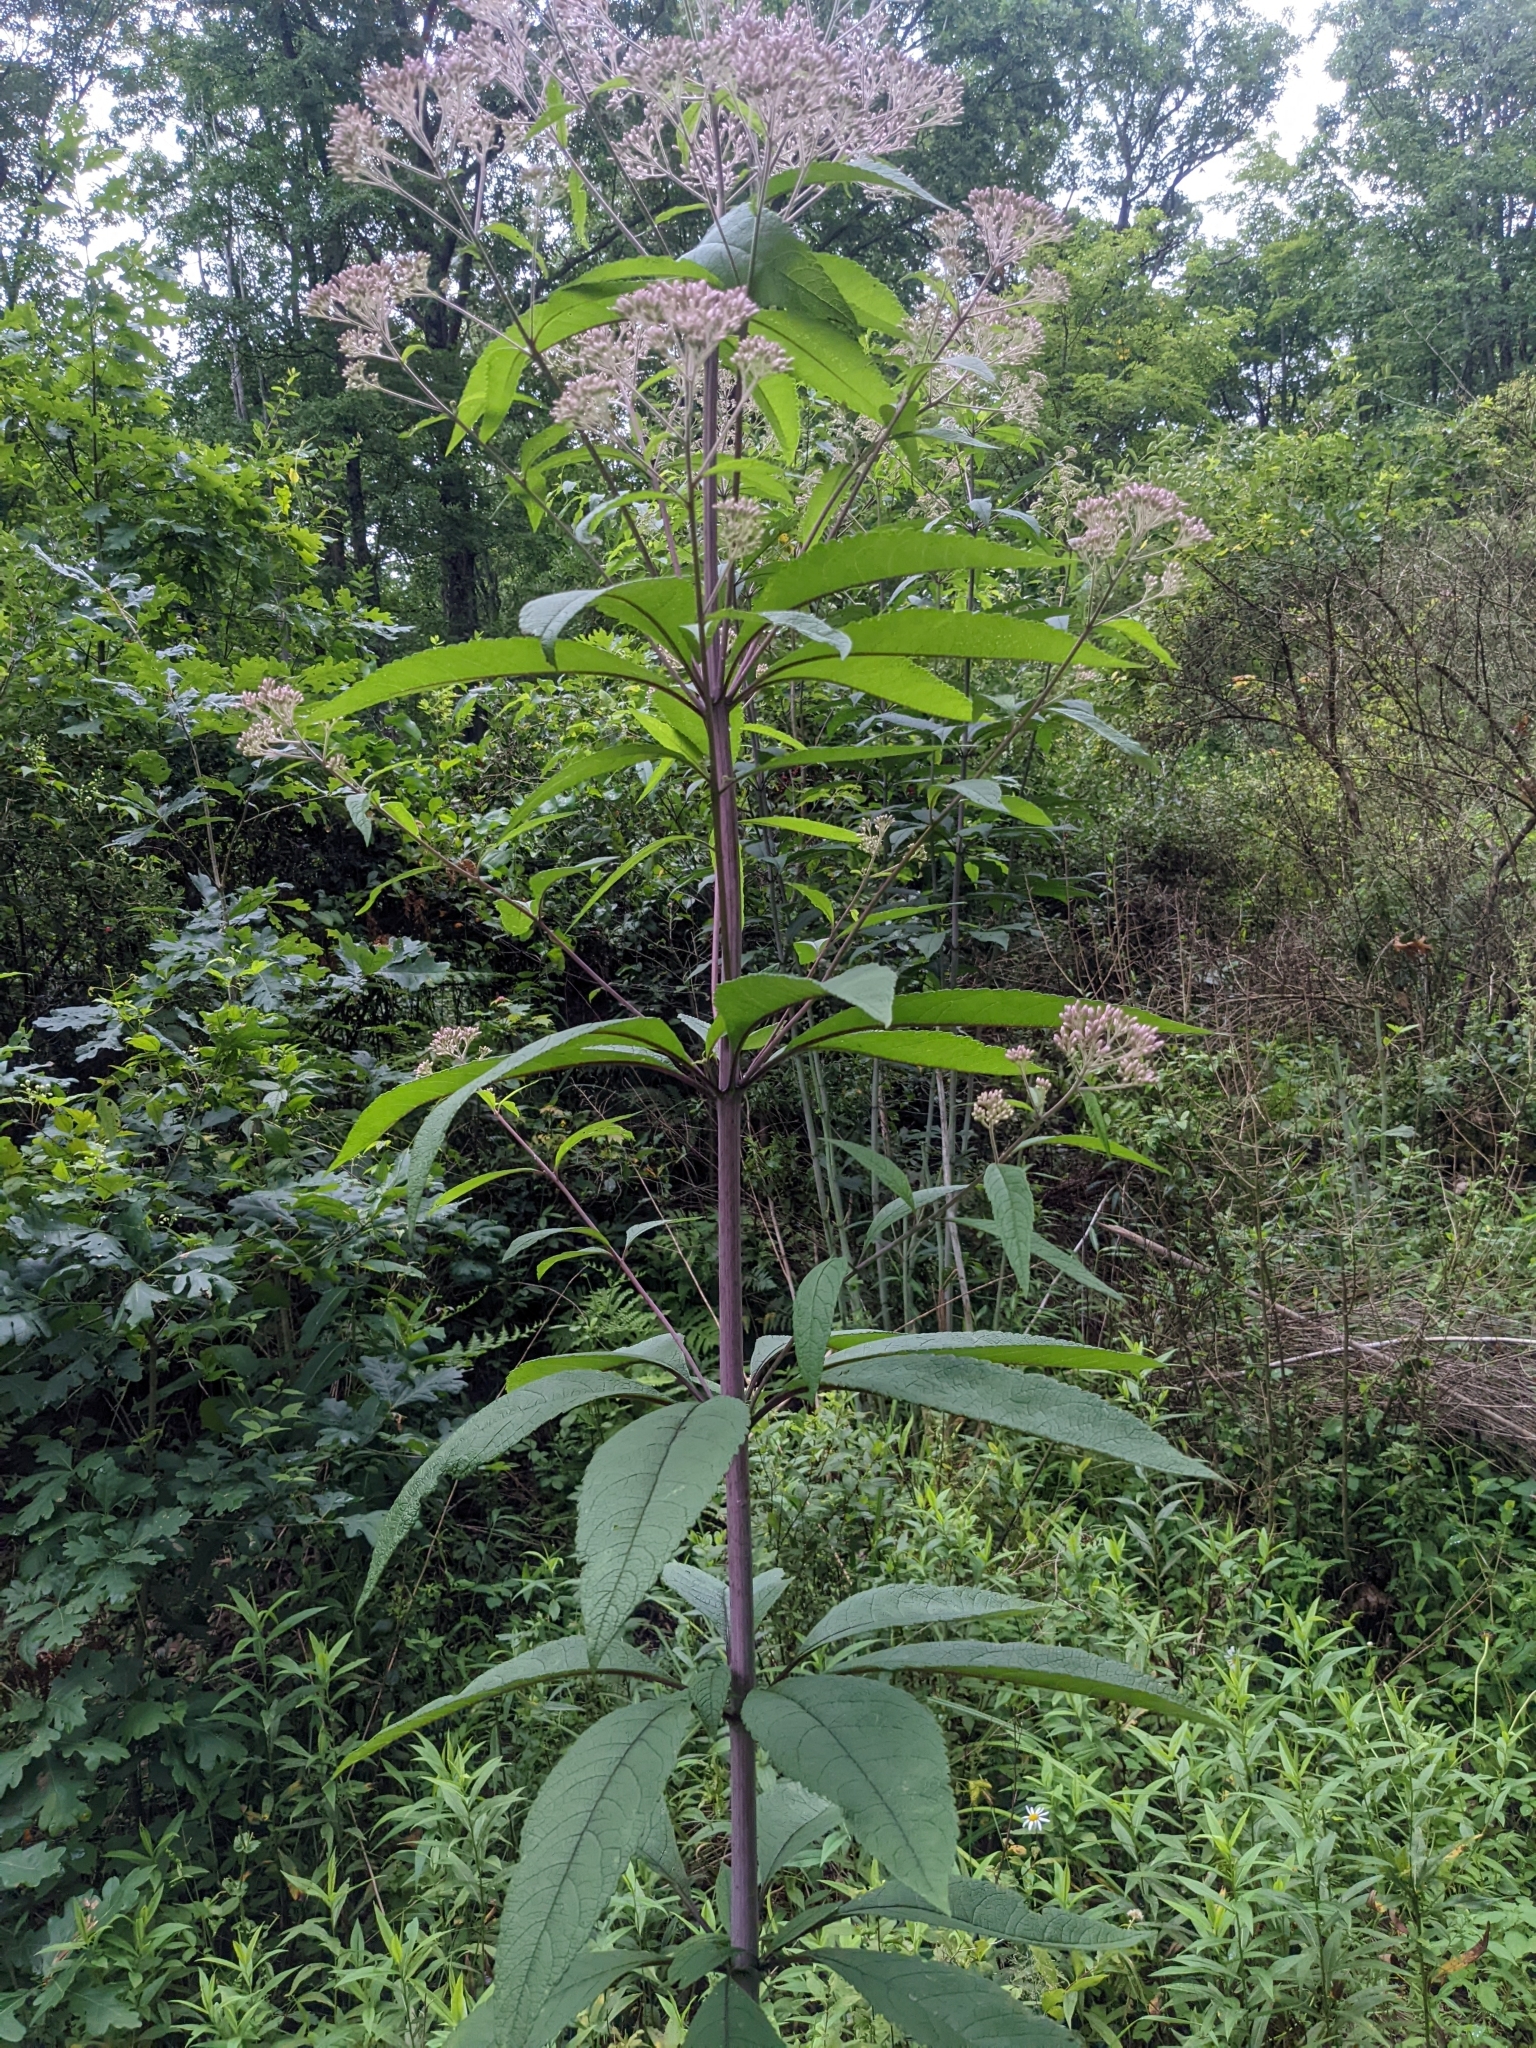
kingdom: Plantae
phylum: Tracheophyta
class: Magnoliopsida
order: Asterales
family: Asteraceae
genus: Eutrochium
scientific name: Eutrochium fistulosum
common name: Trumpetweed
